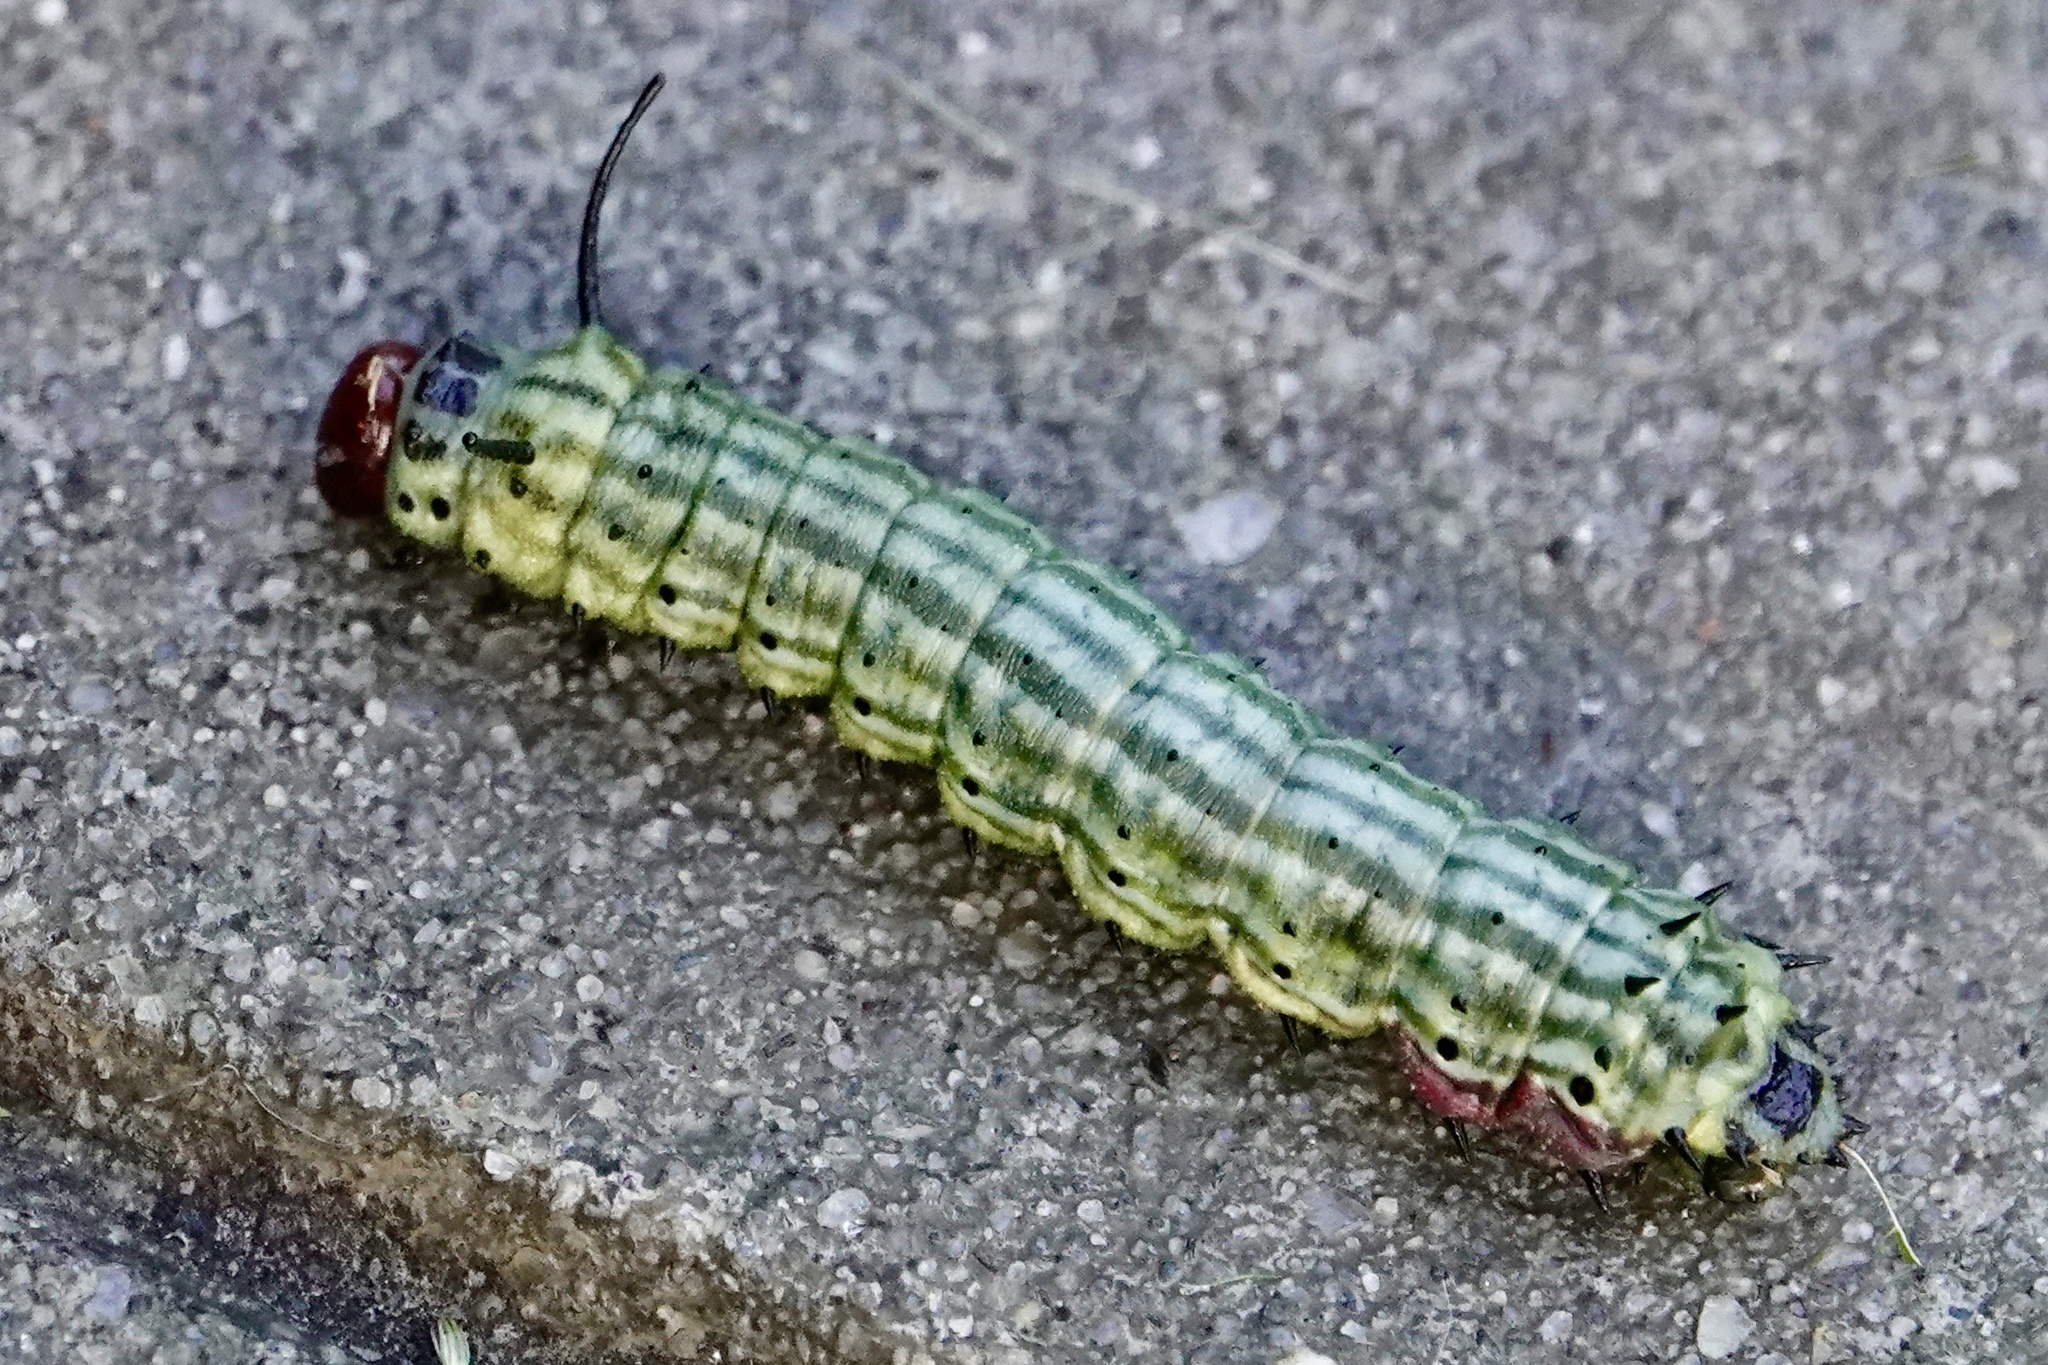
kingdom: Animalia
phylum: Arthropoda
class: Insecta
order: Lepidoptera
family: Saturniidae
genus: Dryocampa
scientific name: Dryocampa rubicunda
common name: Rosy maple moth
